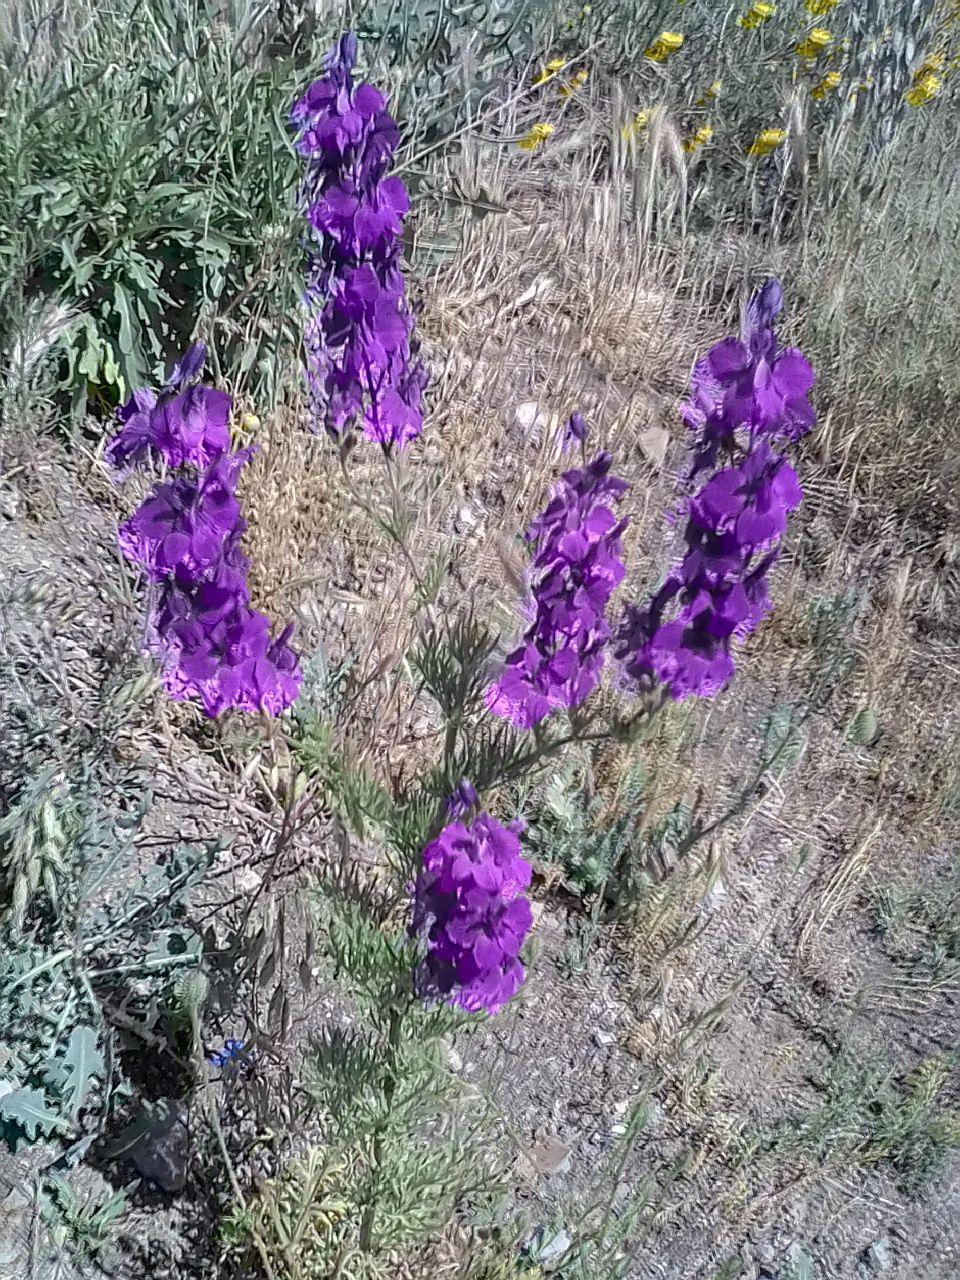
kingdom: Plantae
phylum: Tracheophyta
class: Magnoliopsida
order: Ranunculales
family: Ranunculaceae
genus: Delphinium
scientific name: Delphinium ajacis
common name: Doubtful knight's-spur
